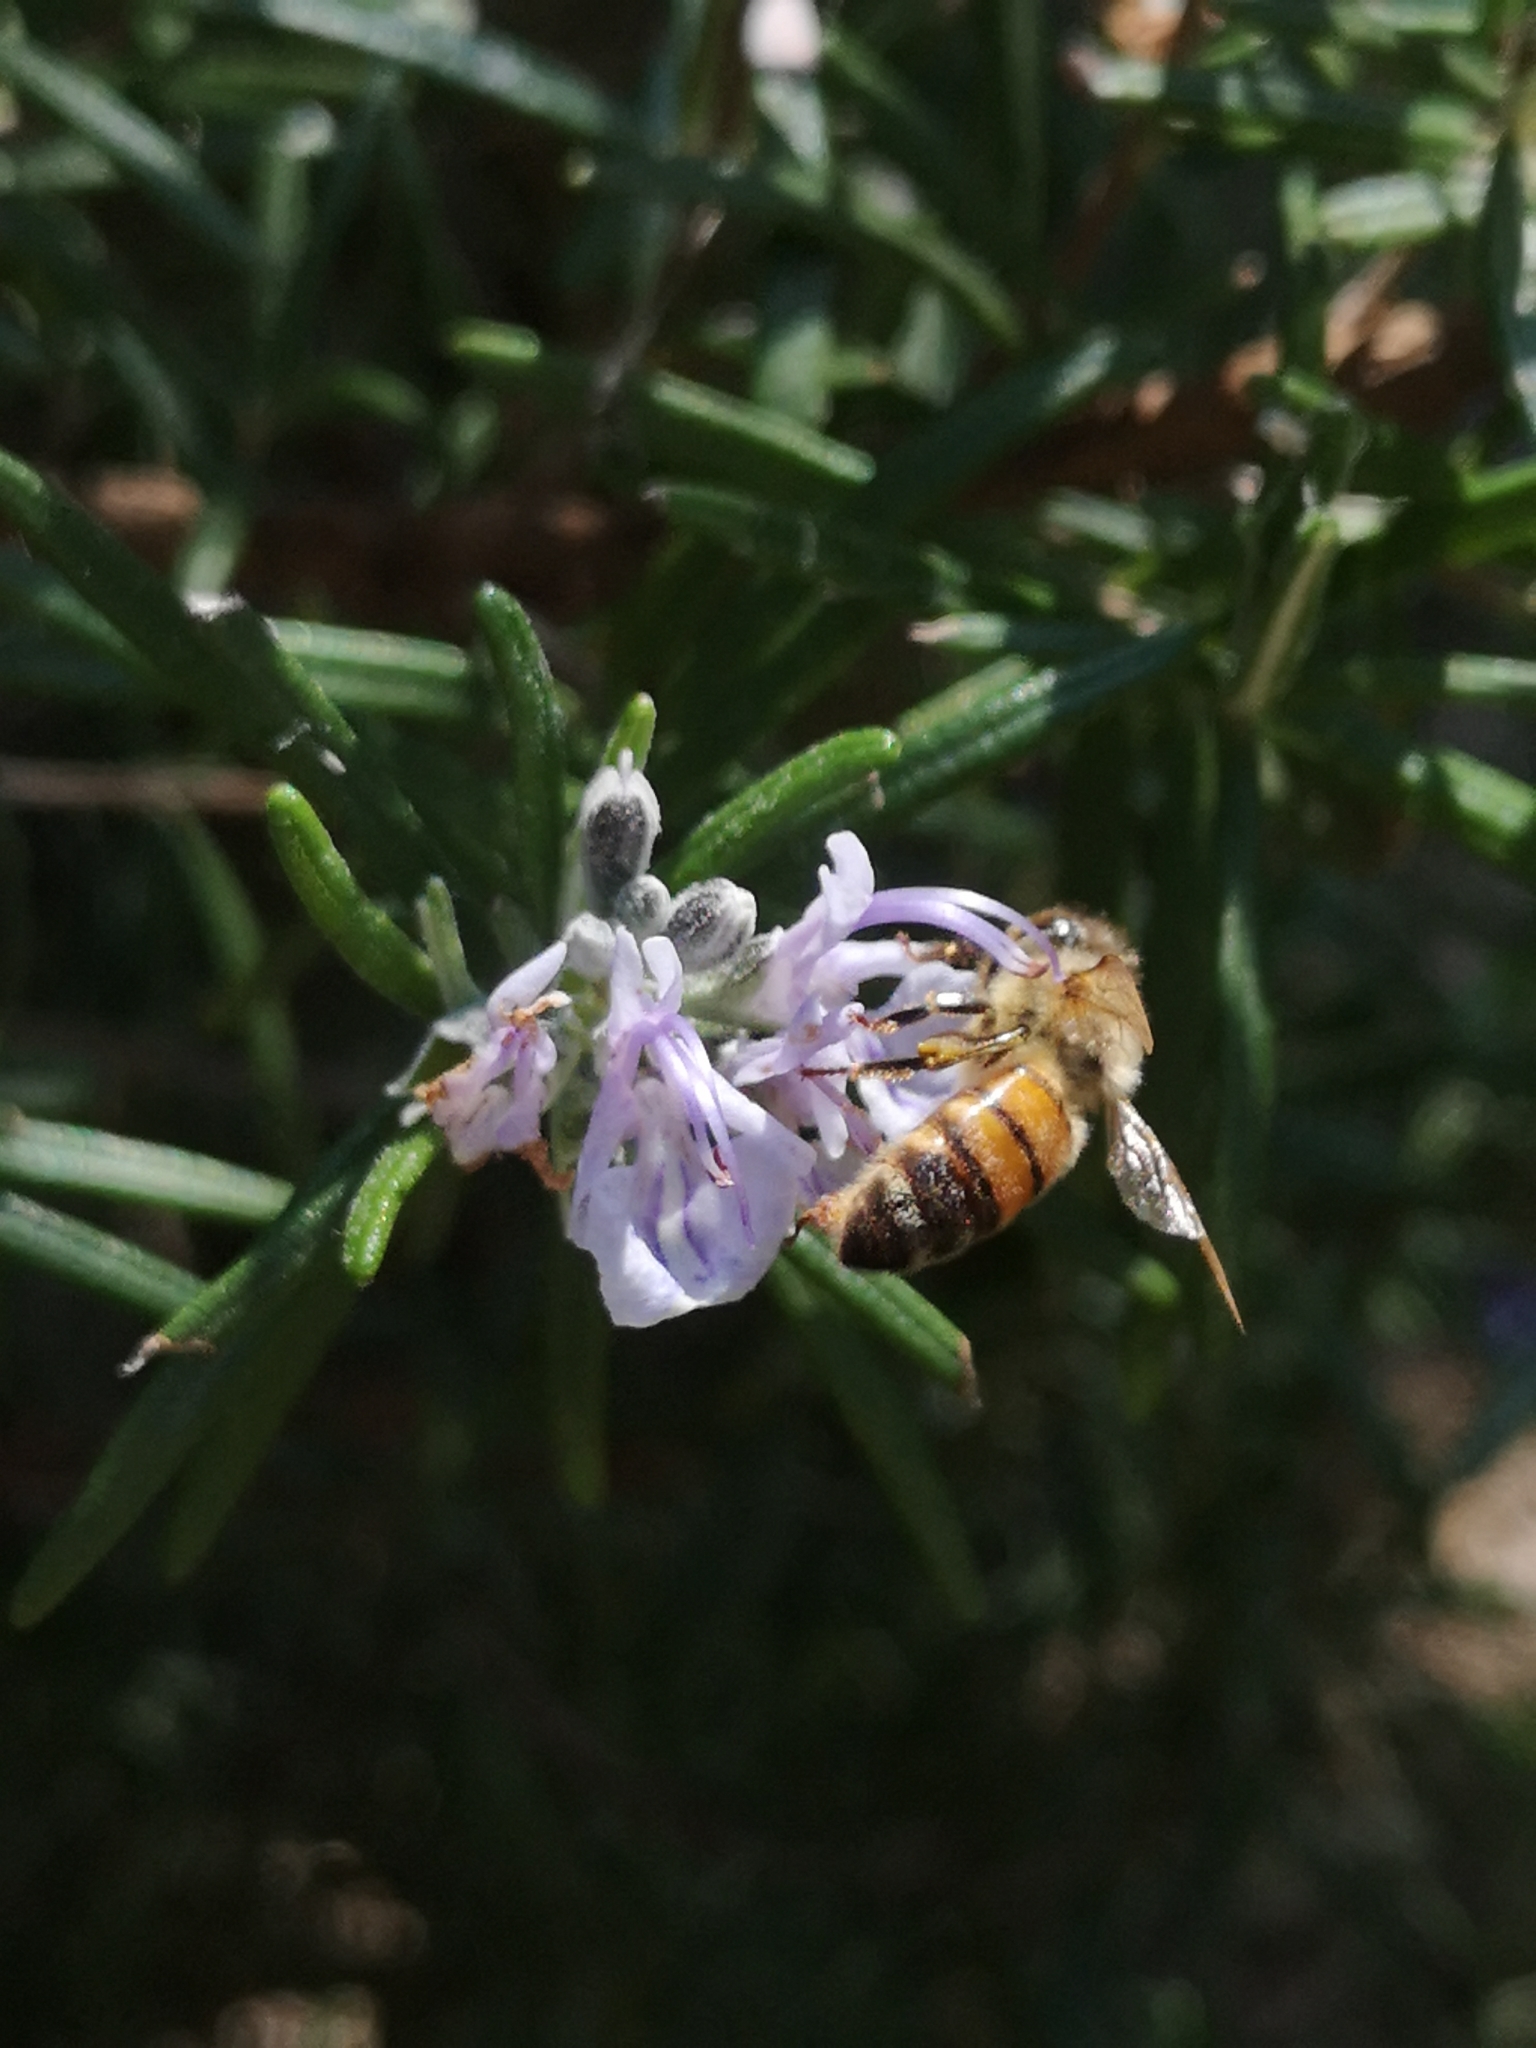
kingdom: Animalia
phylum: Arthropoda
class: Insecta
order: Hymenoptera
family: Apidae
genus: Apis
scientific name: Apis mellifera
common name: Honey bee
